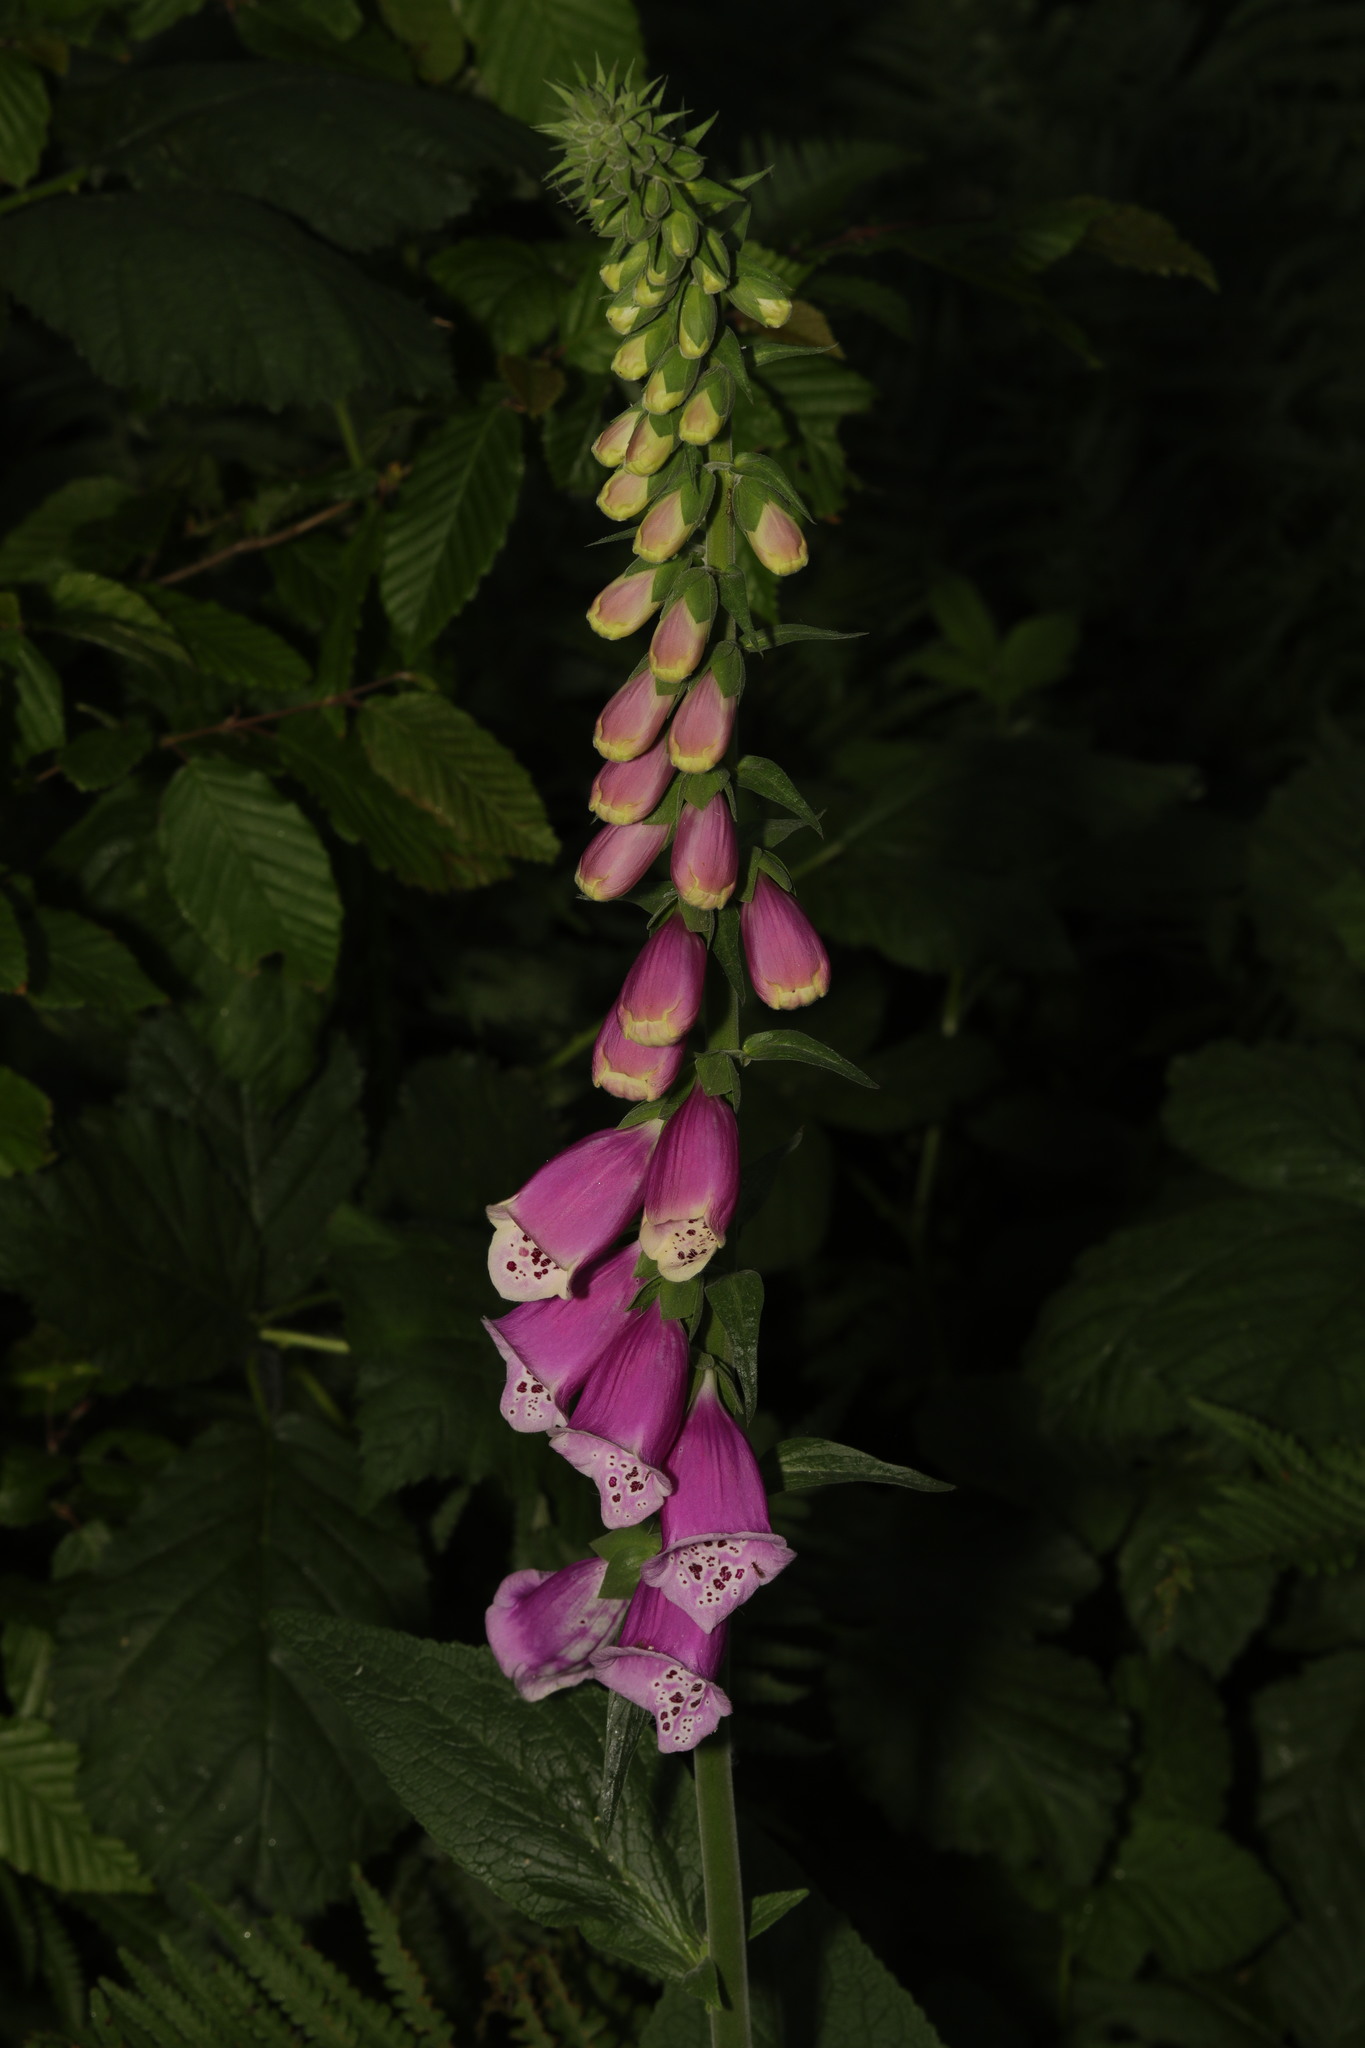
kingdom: Plantae
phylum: Tracheophyta
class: Magnoliopsida
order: Lamiales
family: Plantaginaceae
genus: Digitalis
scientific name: Digitalis purpurea
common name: Foxglove
